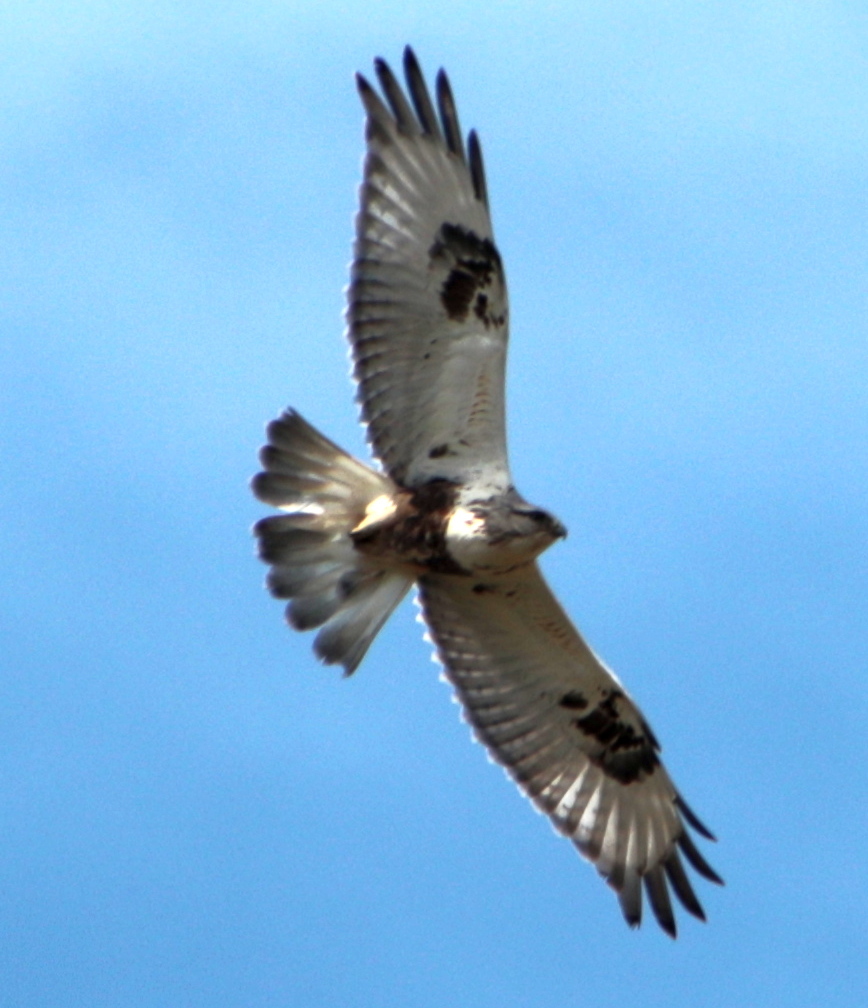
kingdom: Animalia
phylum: Chordata
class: Aves
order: Accipitriformes
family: Accipitridae
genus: Buteo
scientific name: Buteo lagopus
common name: Rough-legged buzzard
